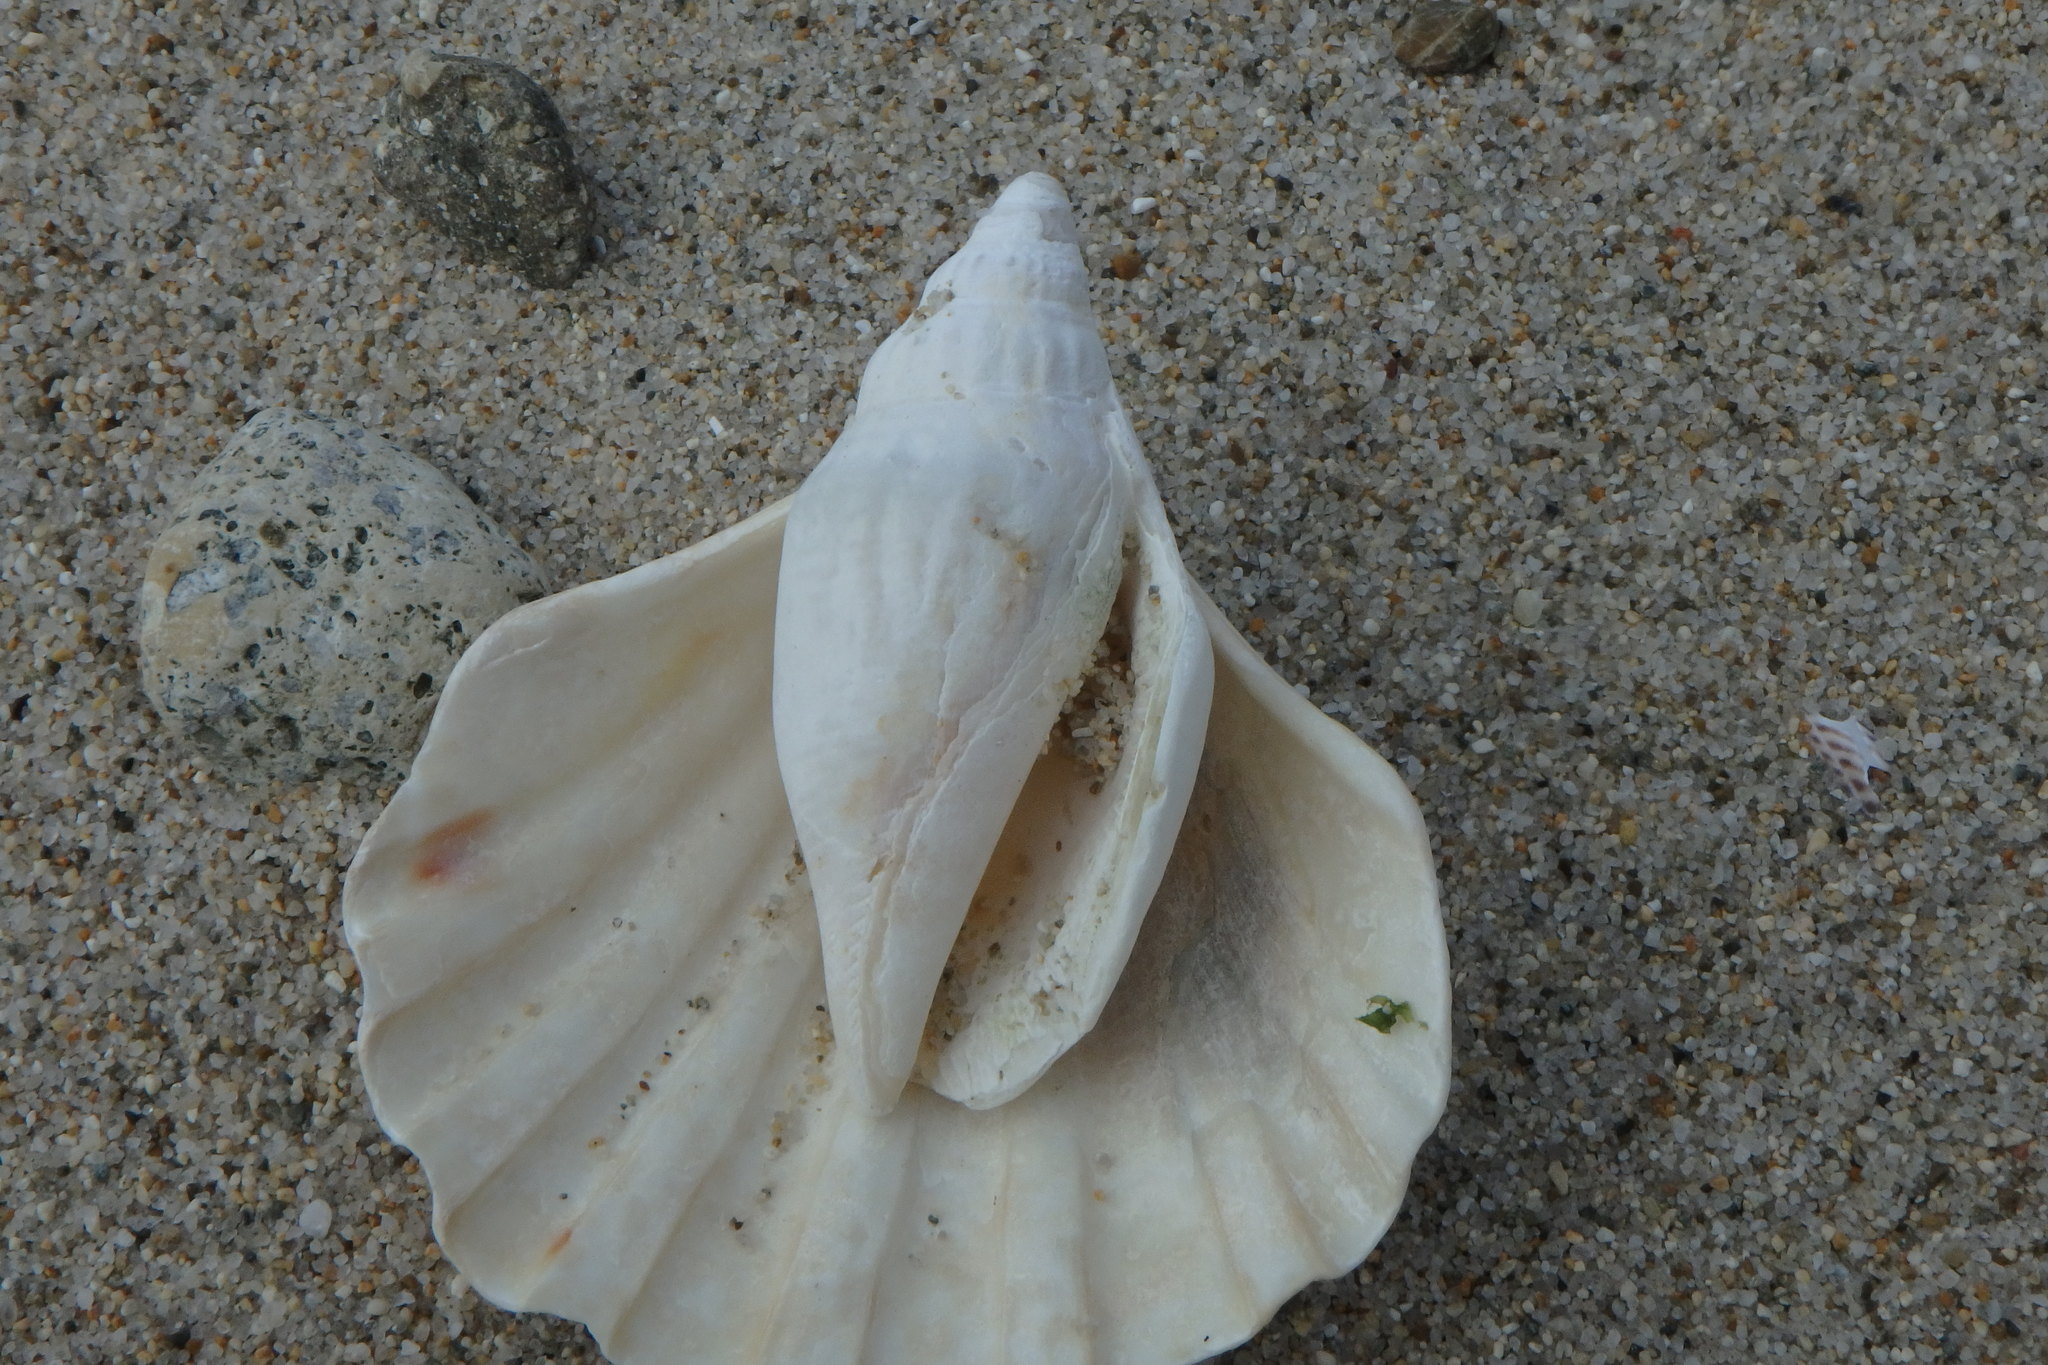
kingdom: Animalia
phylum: Mollusca
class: Gastropoda
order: Littorinimorpha
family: Strombidae
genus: Doxander
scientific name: Doxander japonicus
